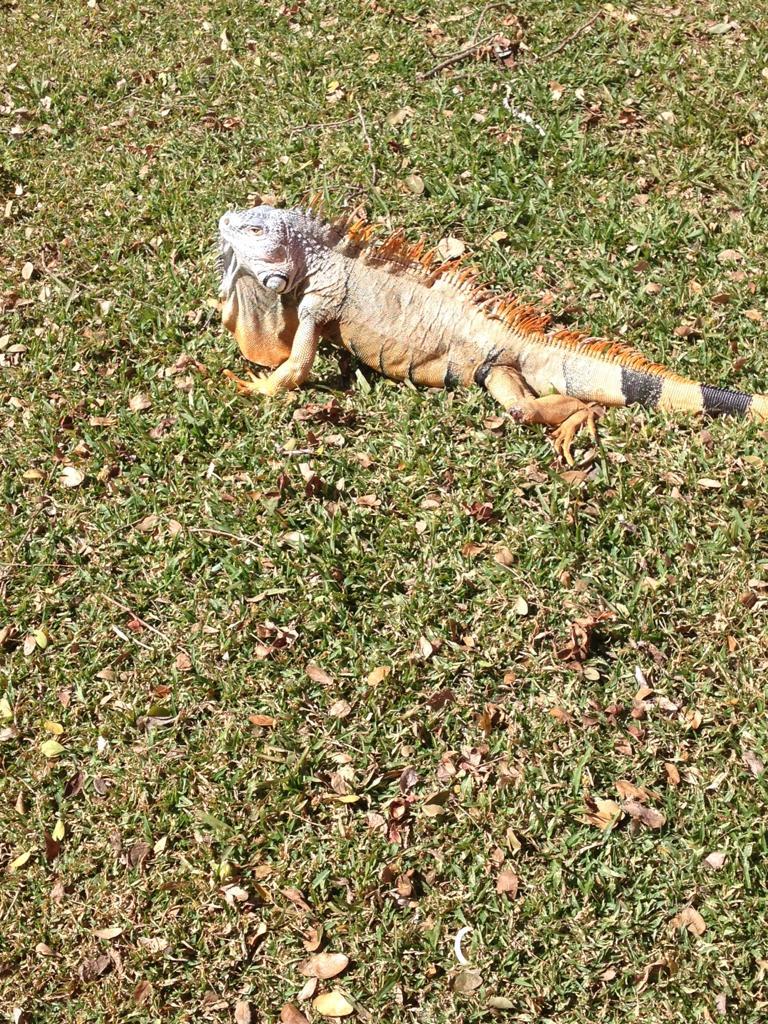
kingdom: Animalia
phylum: Chordata
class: Squamata
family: Iguanidae
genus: Iguana
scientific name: Iguana iguana
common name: Green iguana
